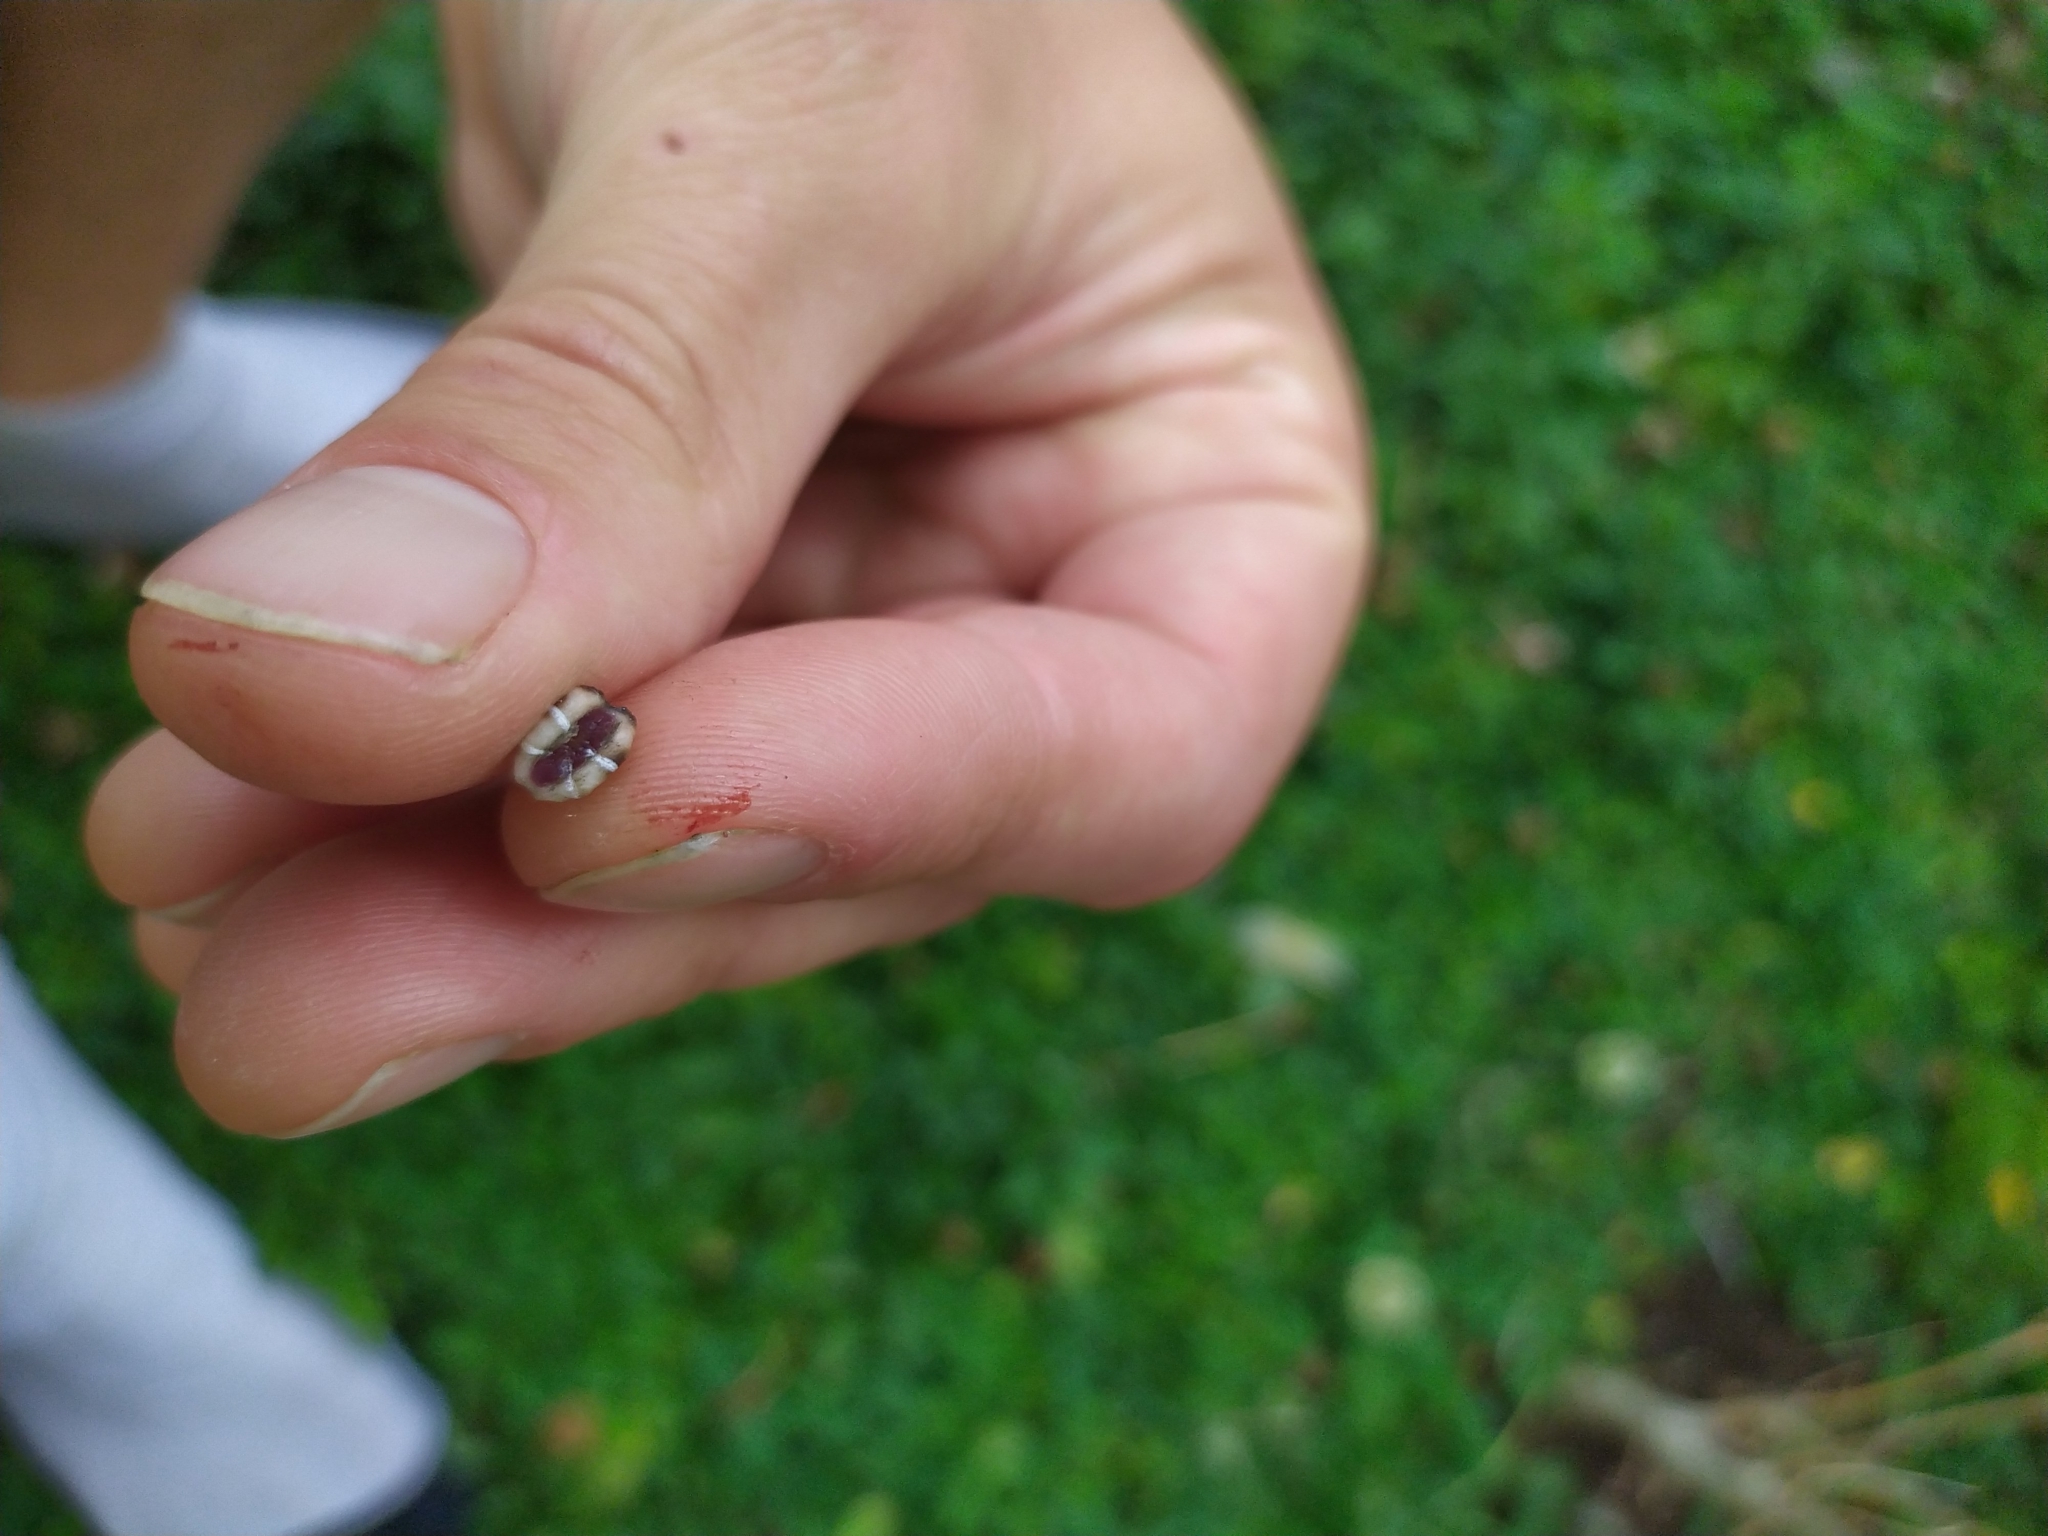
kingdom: Animalia
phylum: Arthropoda
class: Insecta
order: Hemiptera
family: Coccidae
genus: Ceroplastes
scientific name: Ceroplastes sinensis
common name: Hard wax scale
